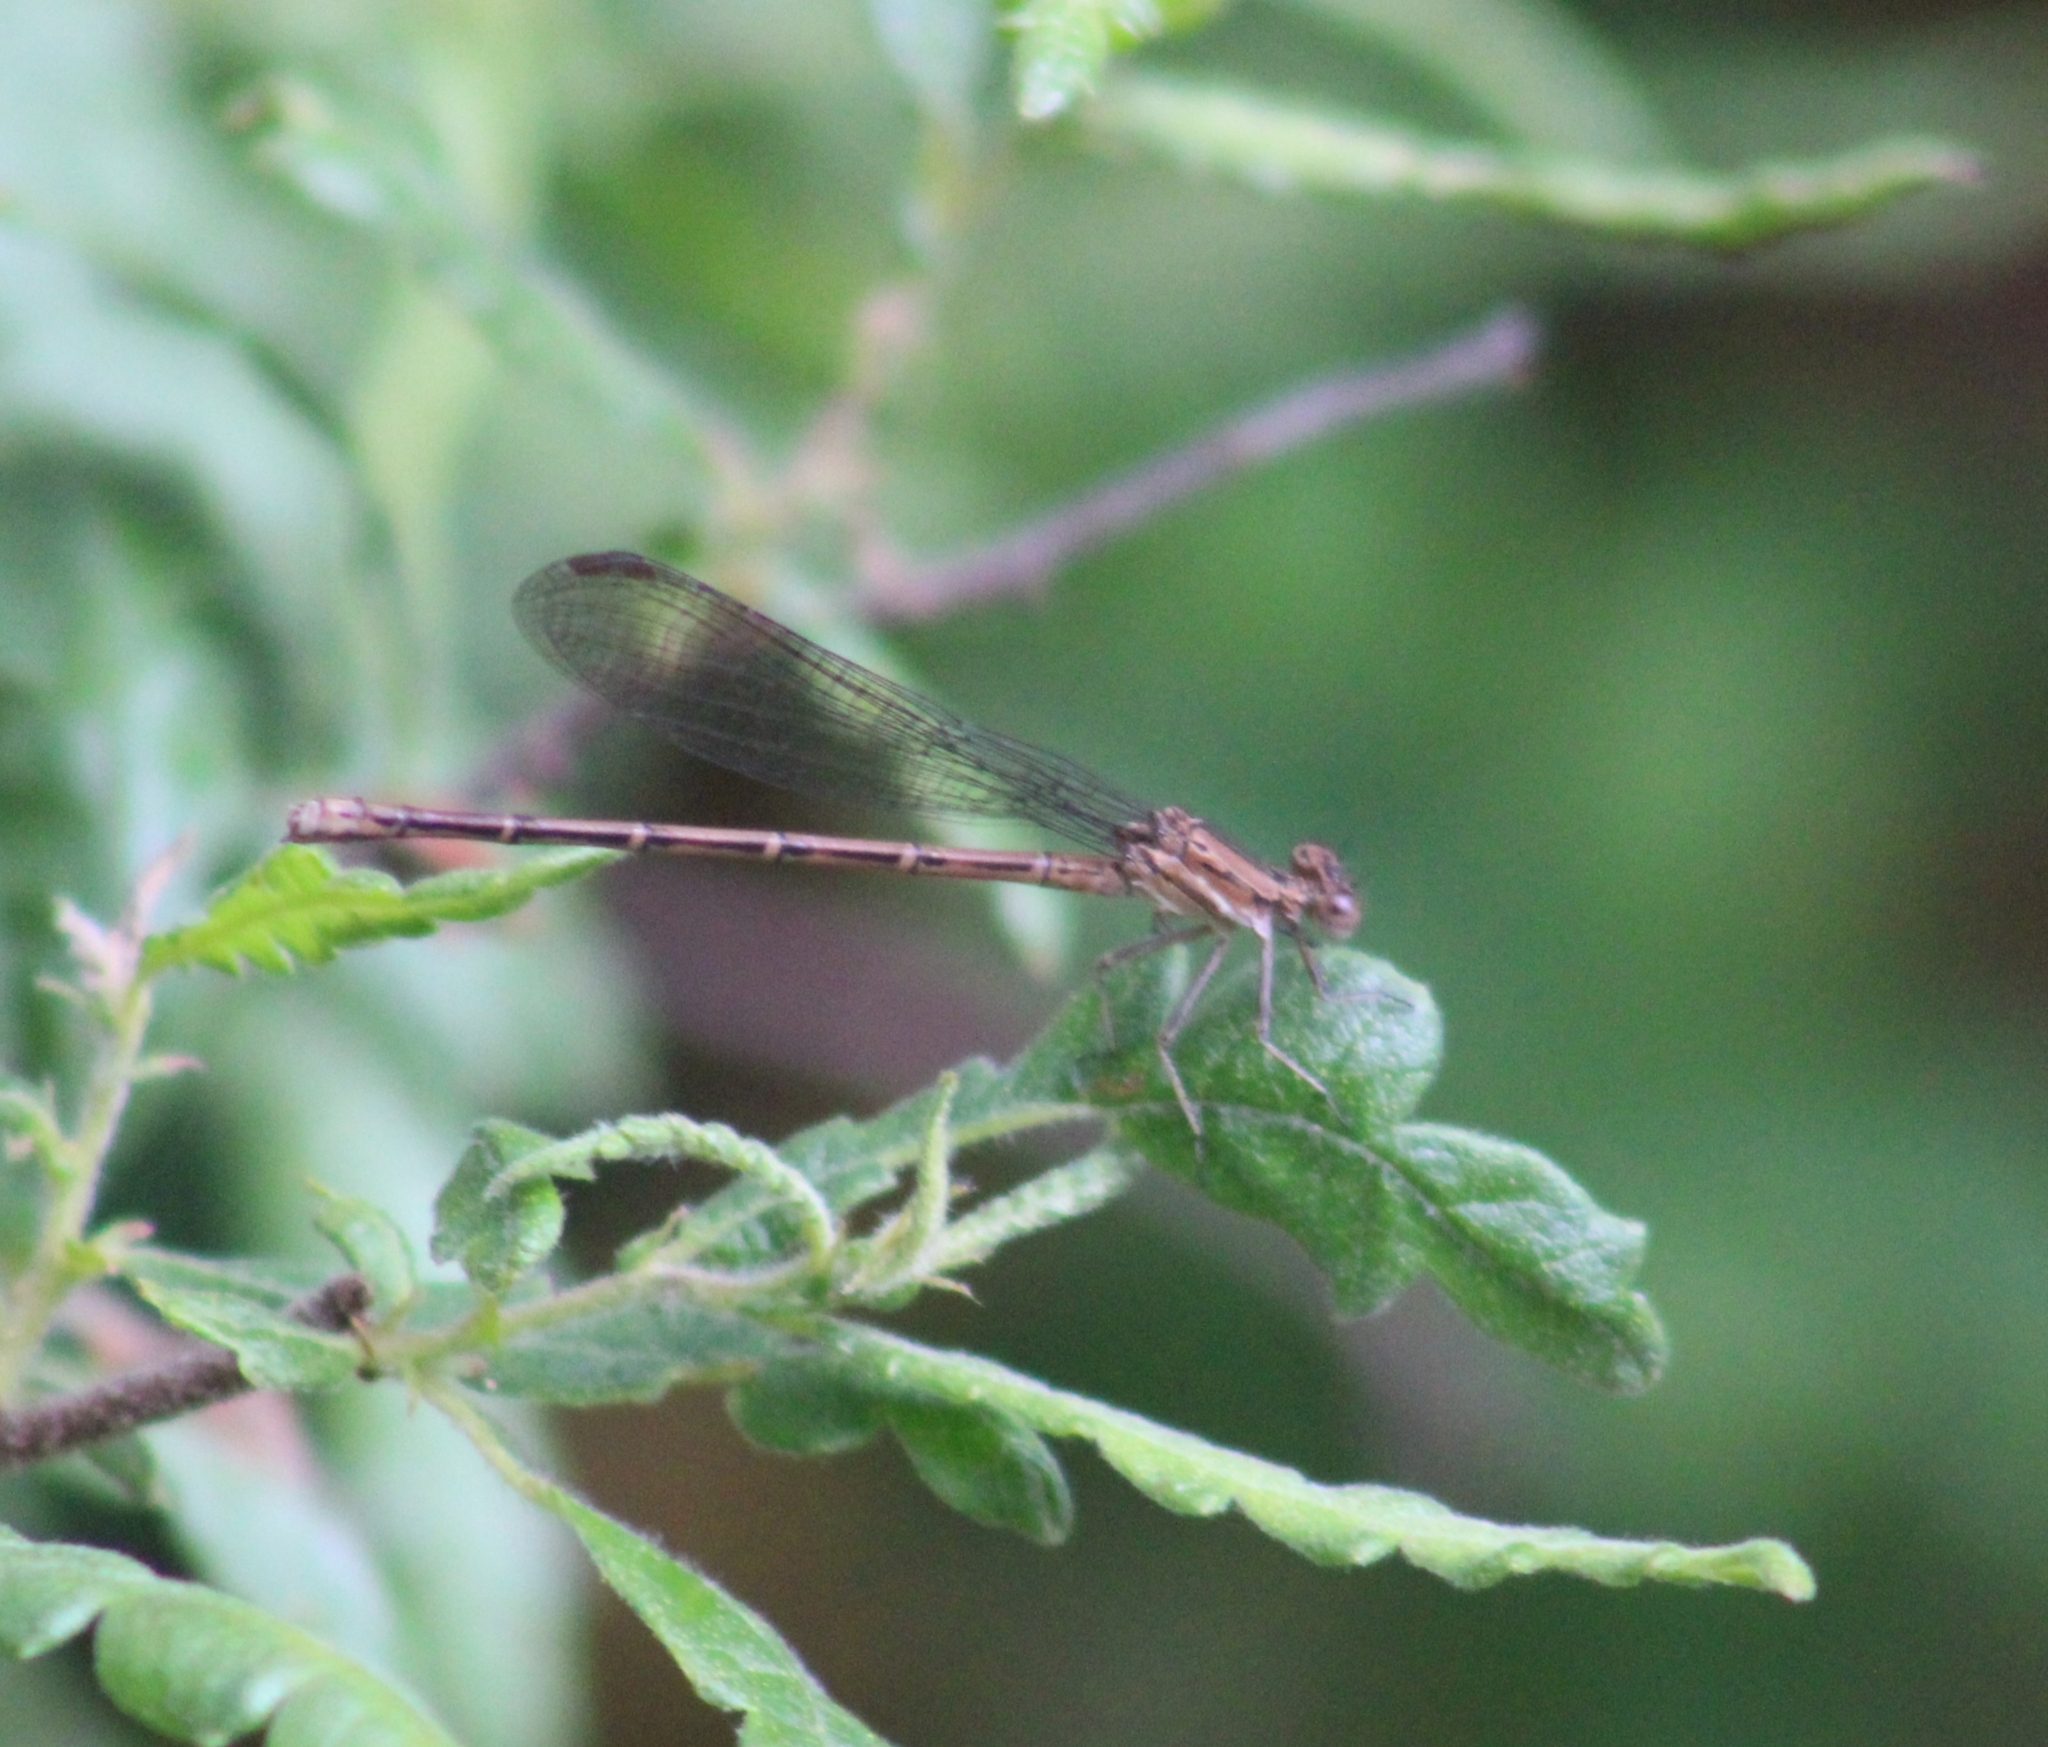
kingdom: Animalia
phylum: Arthropoda
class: Insecta
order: Odonata
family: Coenagrionidae
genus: Argia
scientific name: Argia fumipennis
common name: Variable dancer
